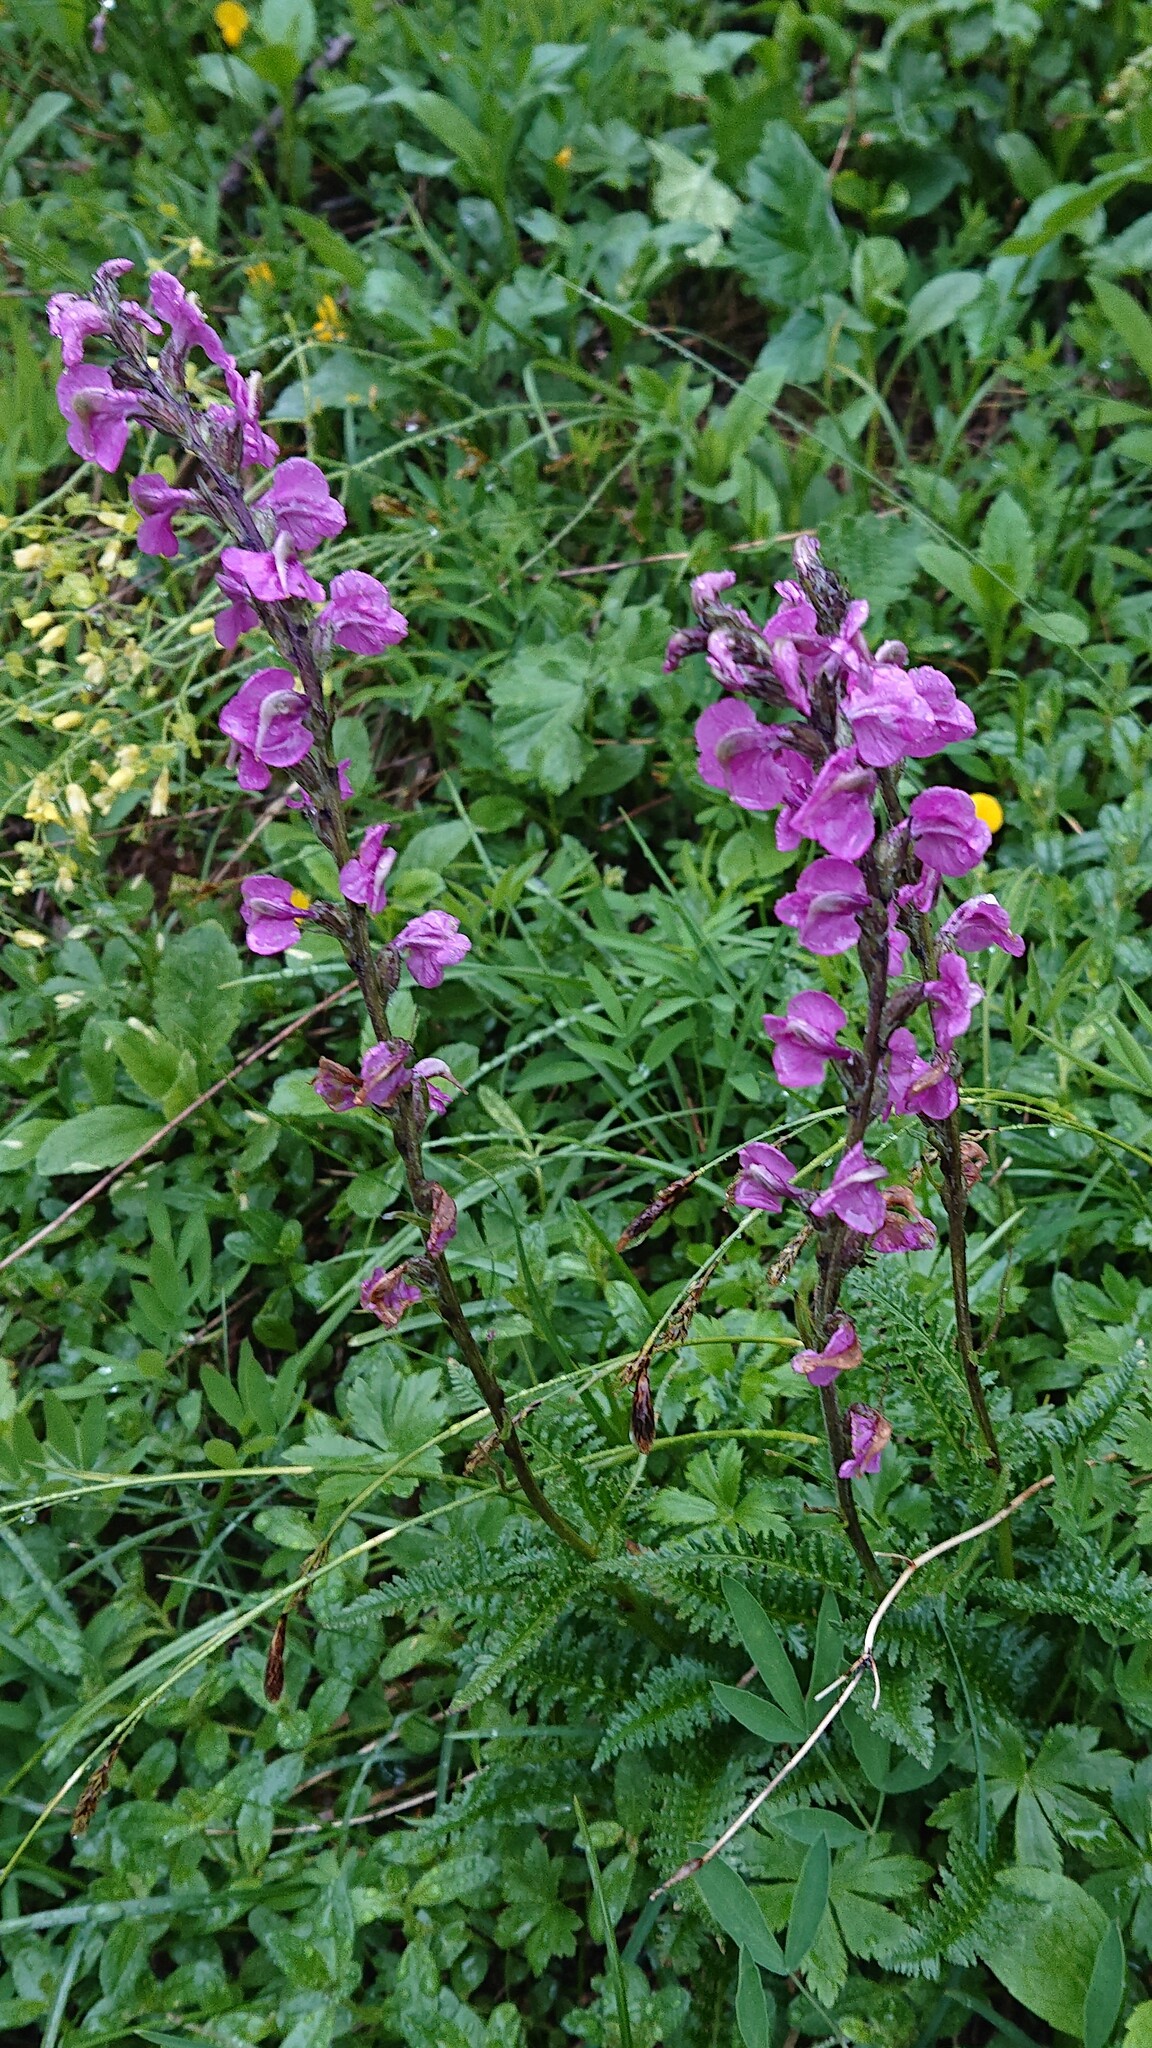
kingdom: Plantae
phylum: Tracheophyta
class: Magnoliopsida
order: Lamiales
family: Orobanchaceae
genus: Pedicularis
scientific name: Pedicularis rostratospicata
